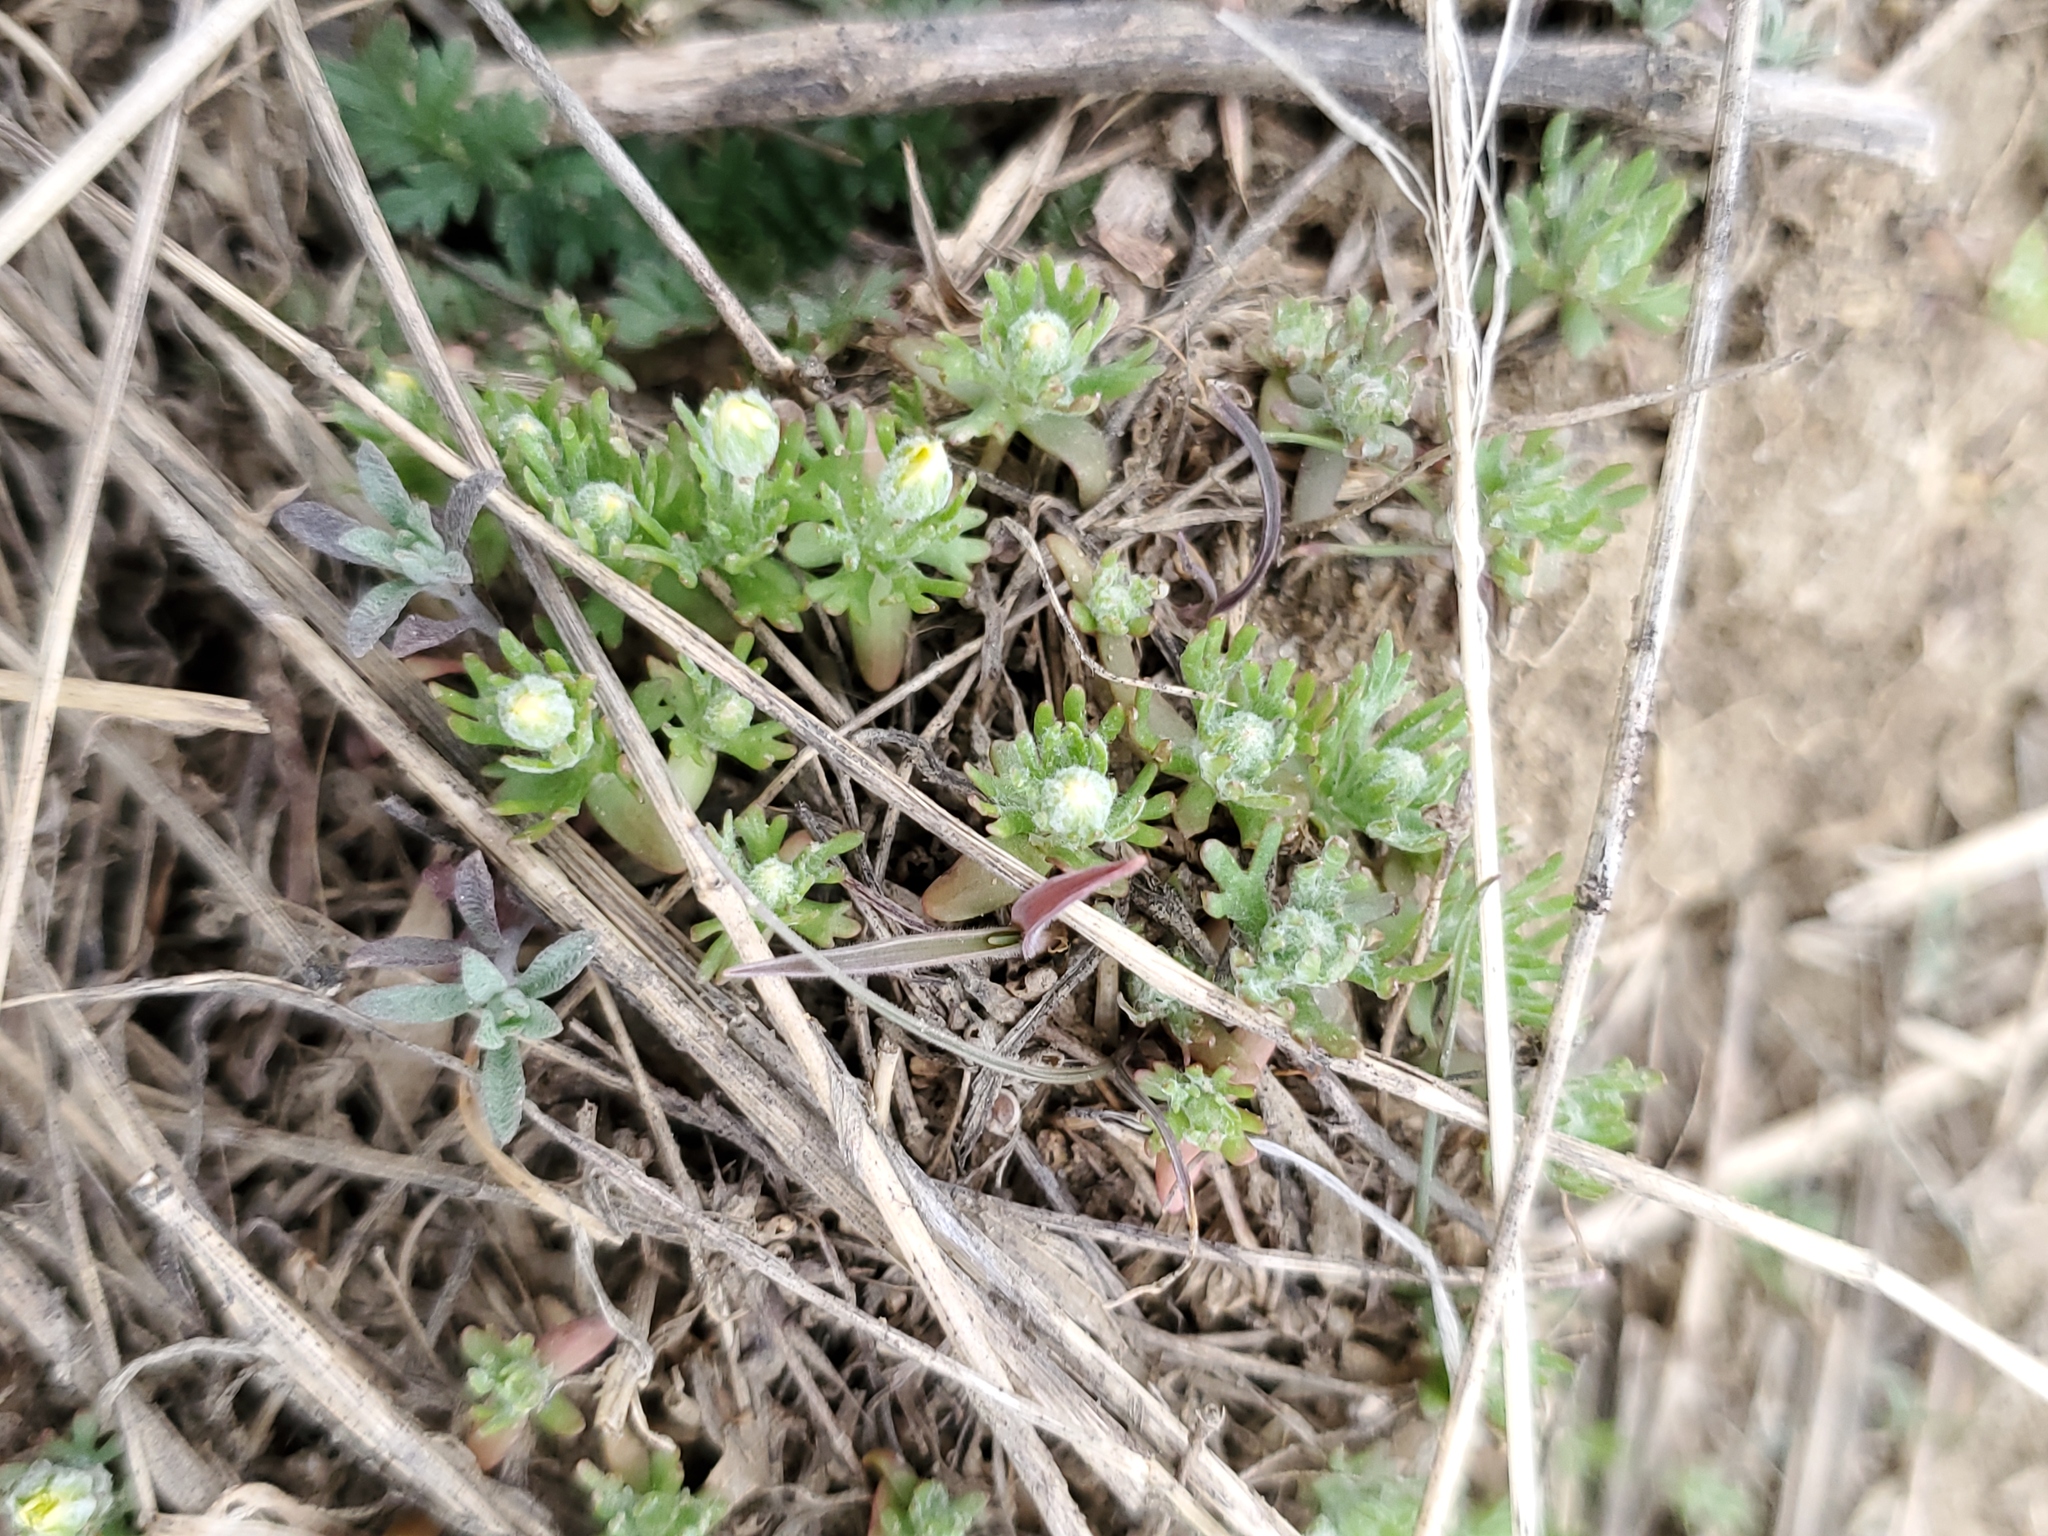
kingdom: Plantae
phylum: Tracheophyta
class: Magnoliopsida
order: Ranunculales
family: Ranunculaceae
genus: Ceratocephala
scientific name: Ceratocephala orthoceras
